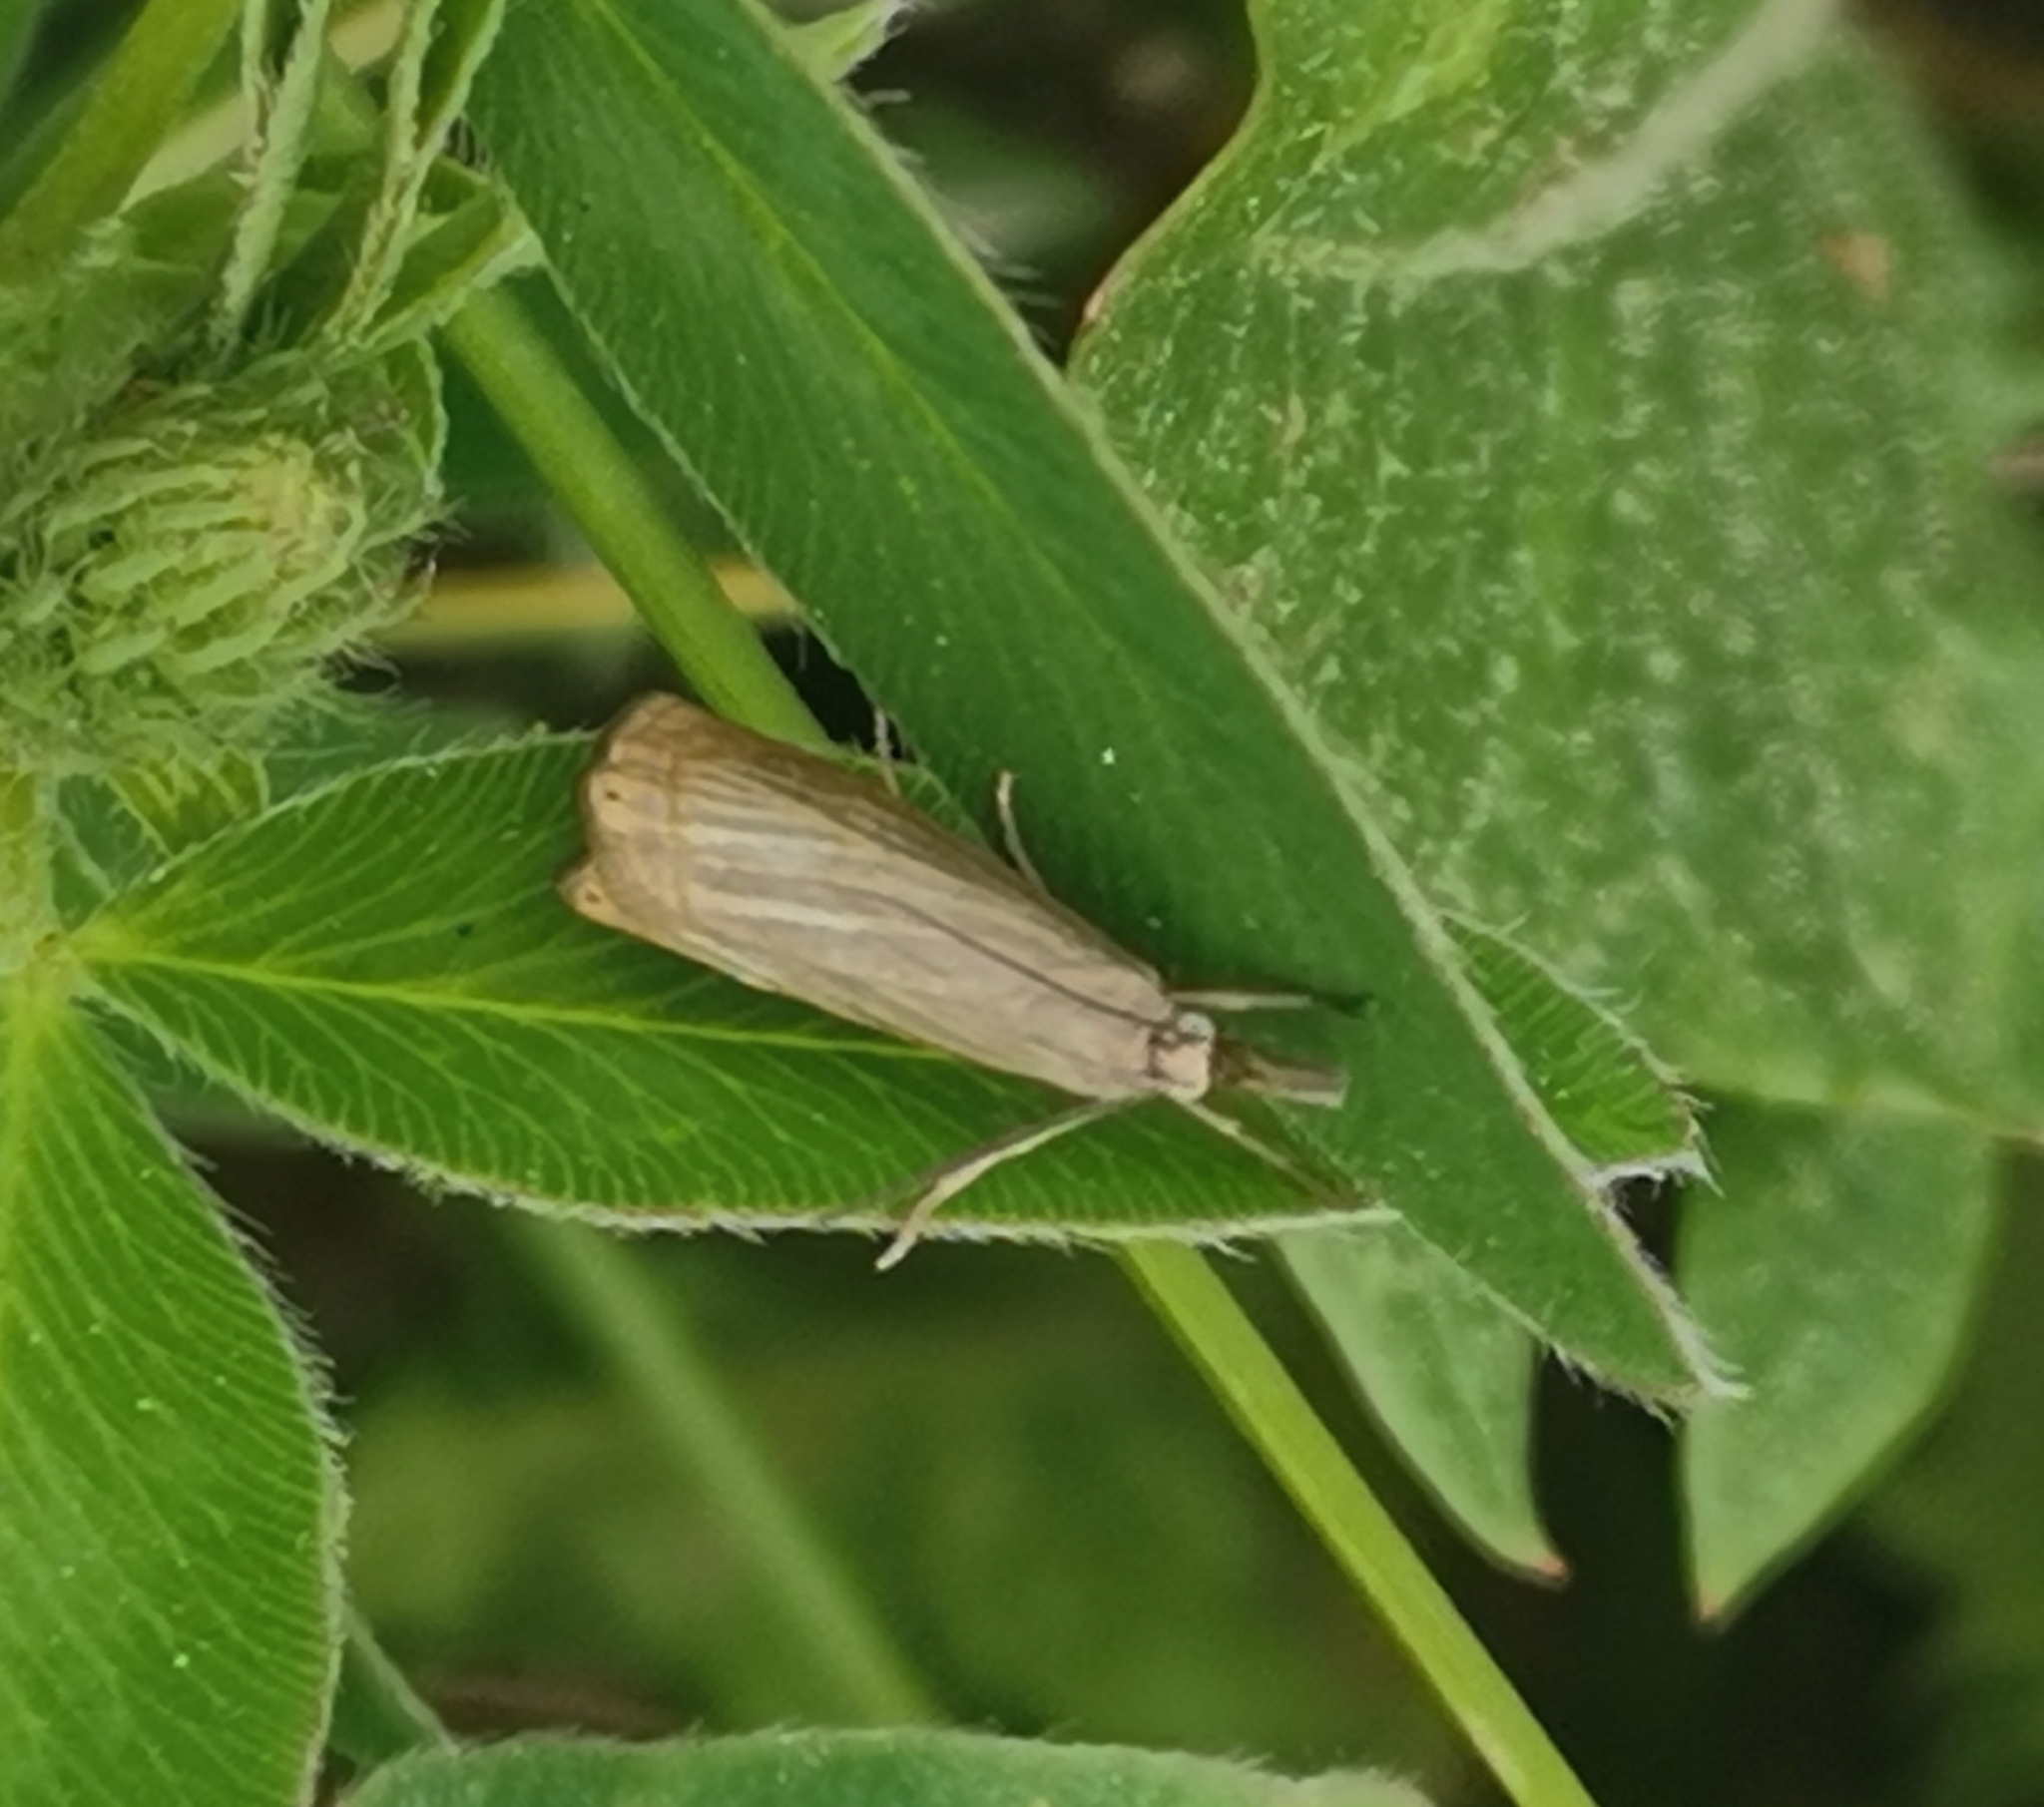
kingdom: Animalia
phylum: Arthropoda
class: Insecta
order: Lepidoptera
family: Crambidae
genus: Chrysoteuchia
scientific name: Chrysoteuchia culmella
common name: Garden grass-veneer
